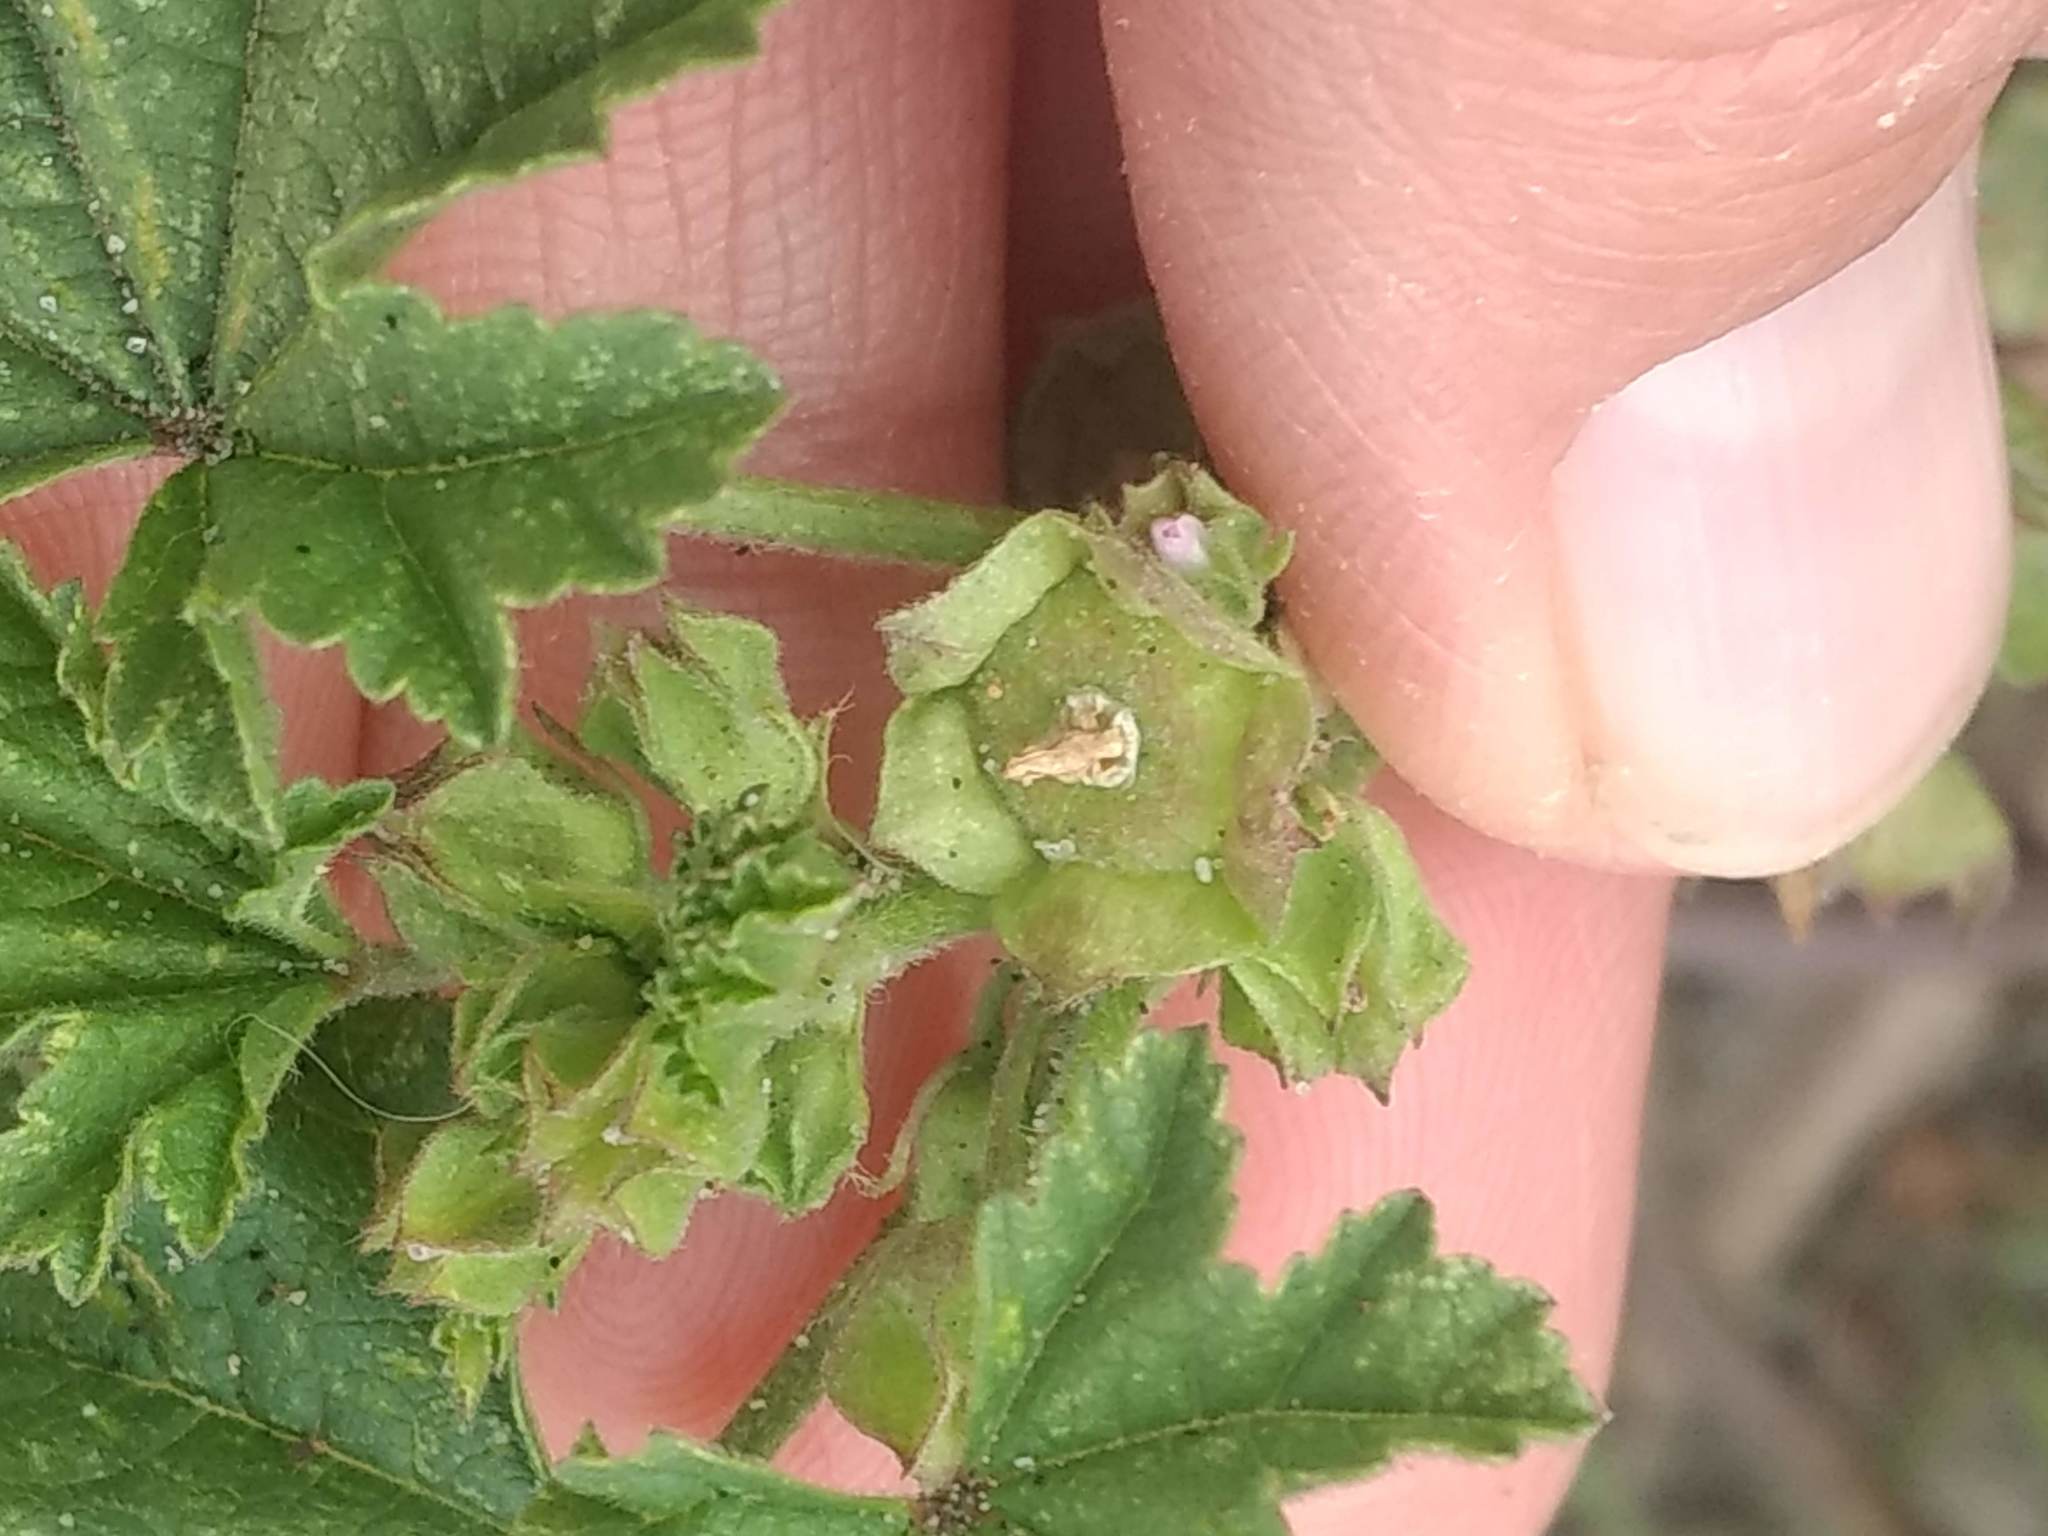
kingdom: Plantae
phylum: Tracheophyta
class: Magnoliopsida
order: Malvales
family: Malvaceae
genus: Malva
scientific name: Malva parviflora
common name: Least mallow
